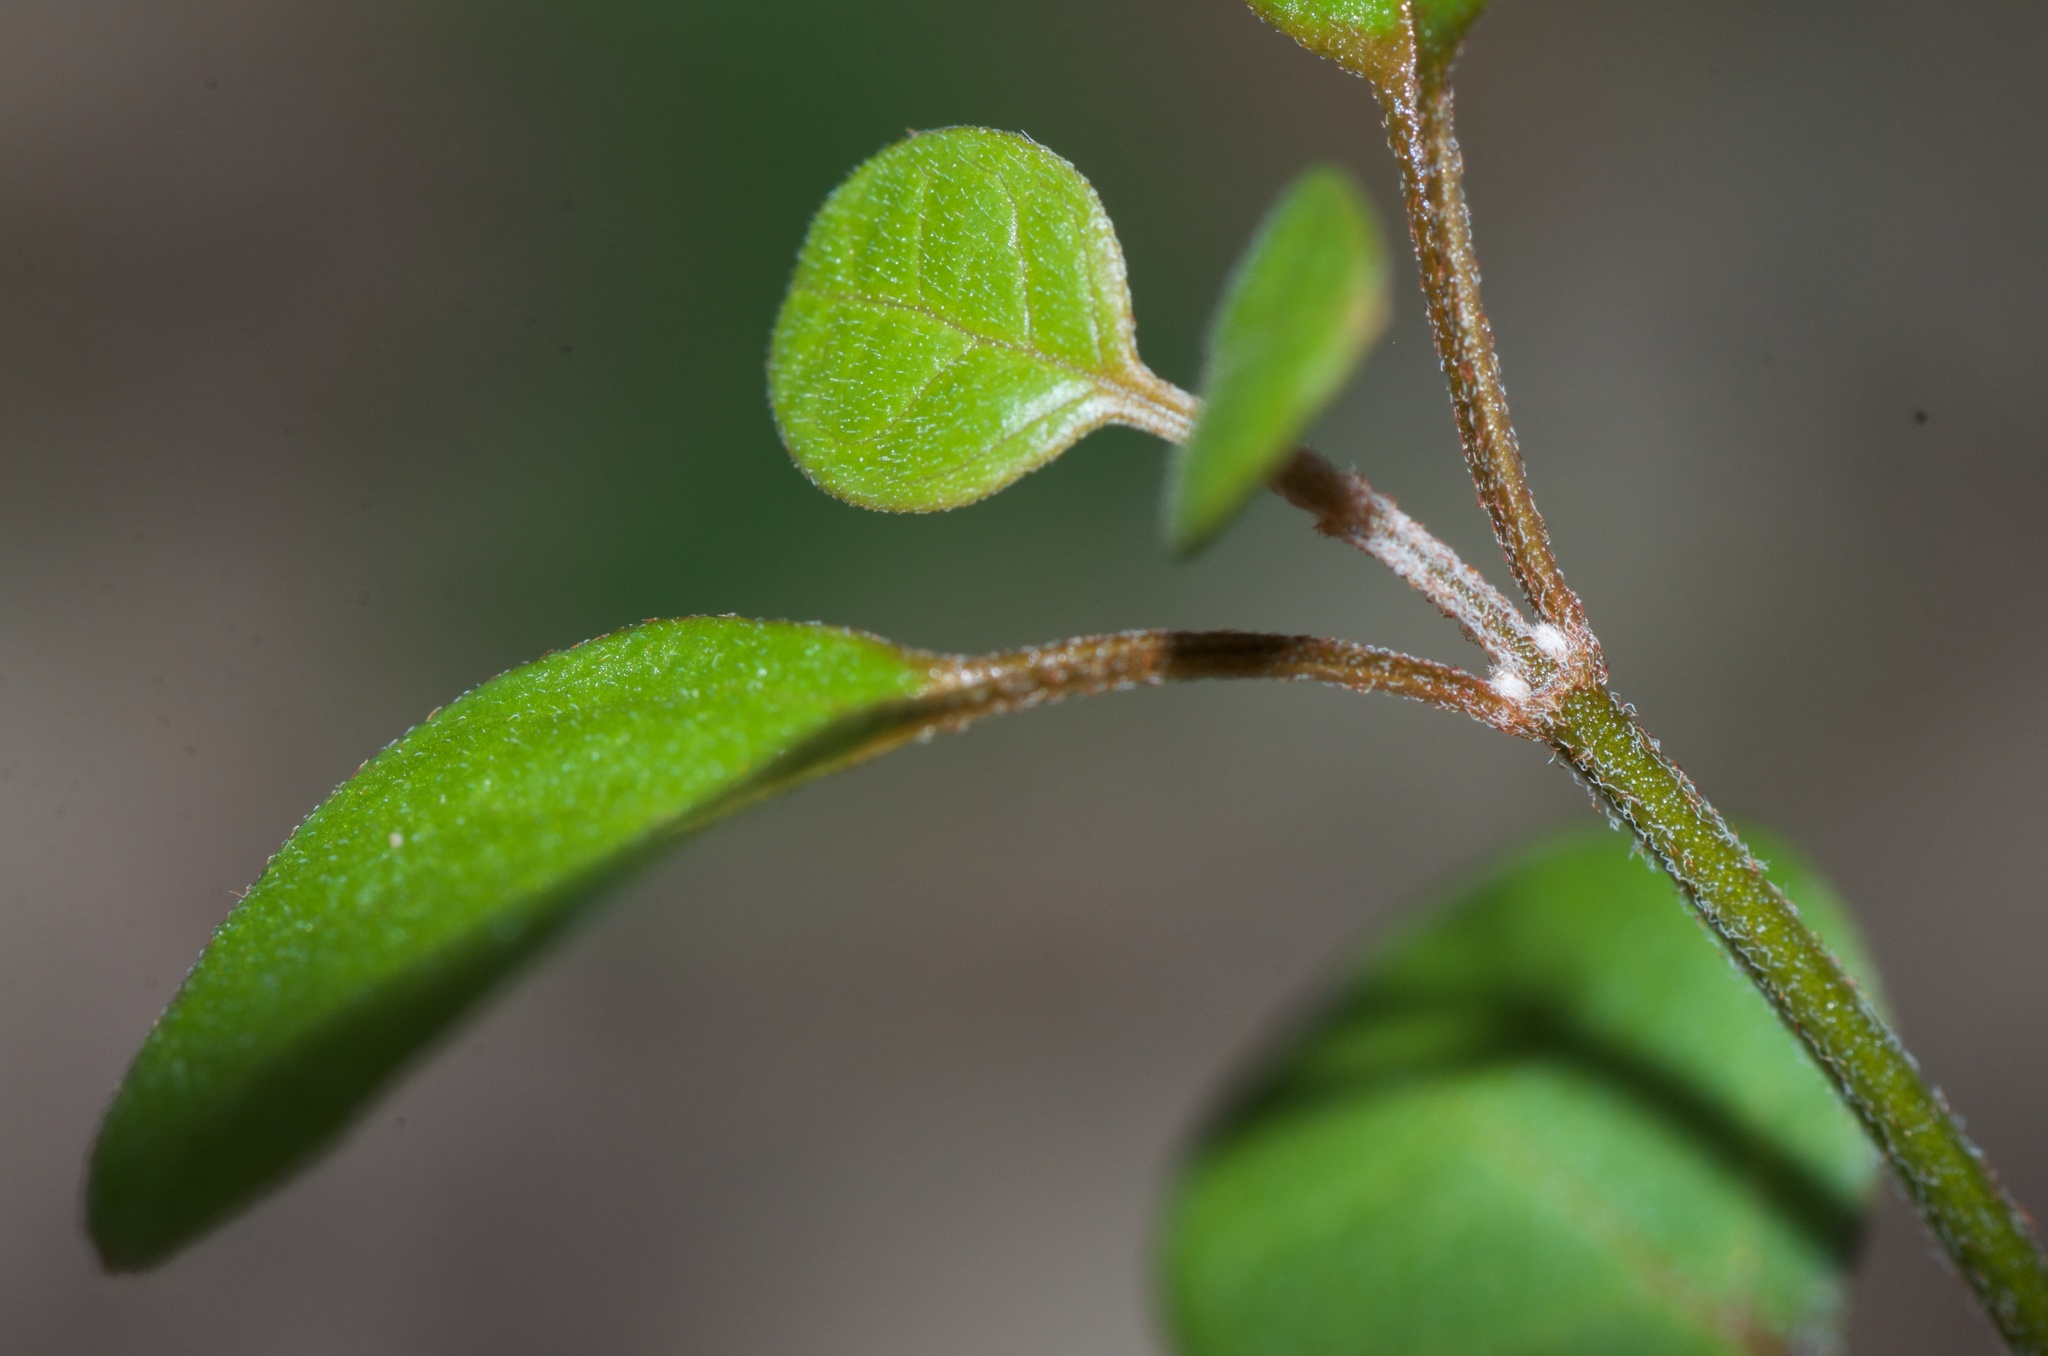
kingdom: Plantae
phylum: Tracheophyta
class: Magnoliopsida
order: Lamiales
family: Lamiaceae
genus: Teucrium
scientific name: Teucrium parvifolium
